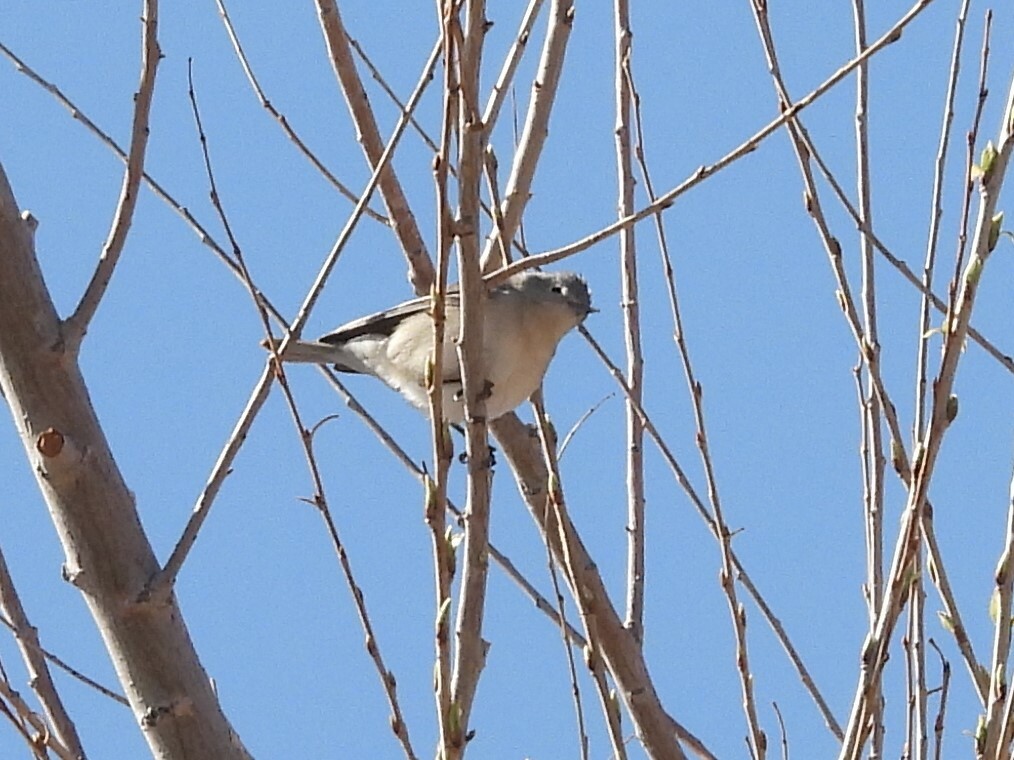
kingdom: Animalia
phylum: Chordata
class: Aves
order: Passeriformes
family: Parulidae
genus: Leiothlypis
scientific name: Leiothlypis luciae
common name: Lucy's warbler
